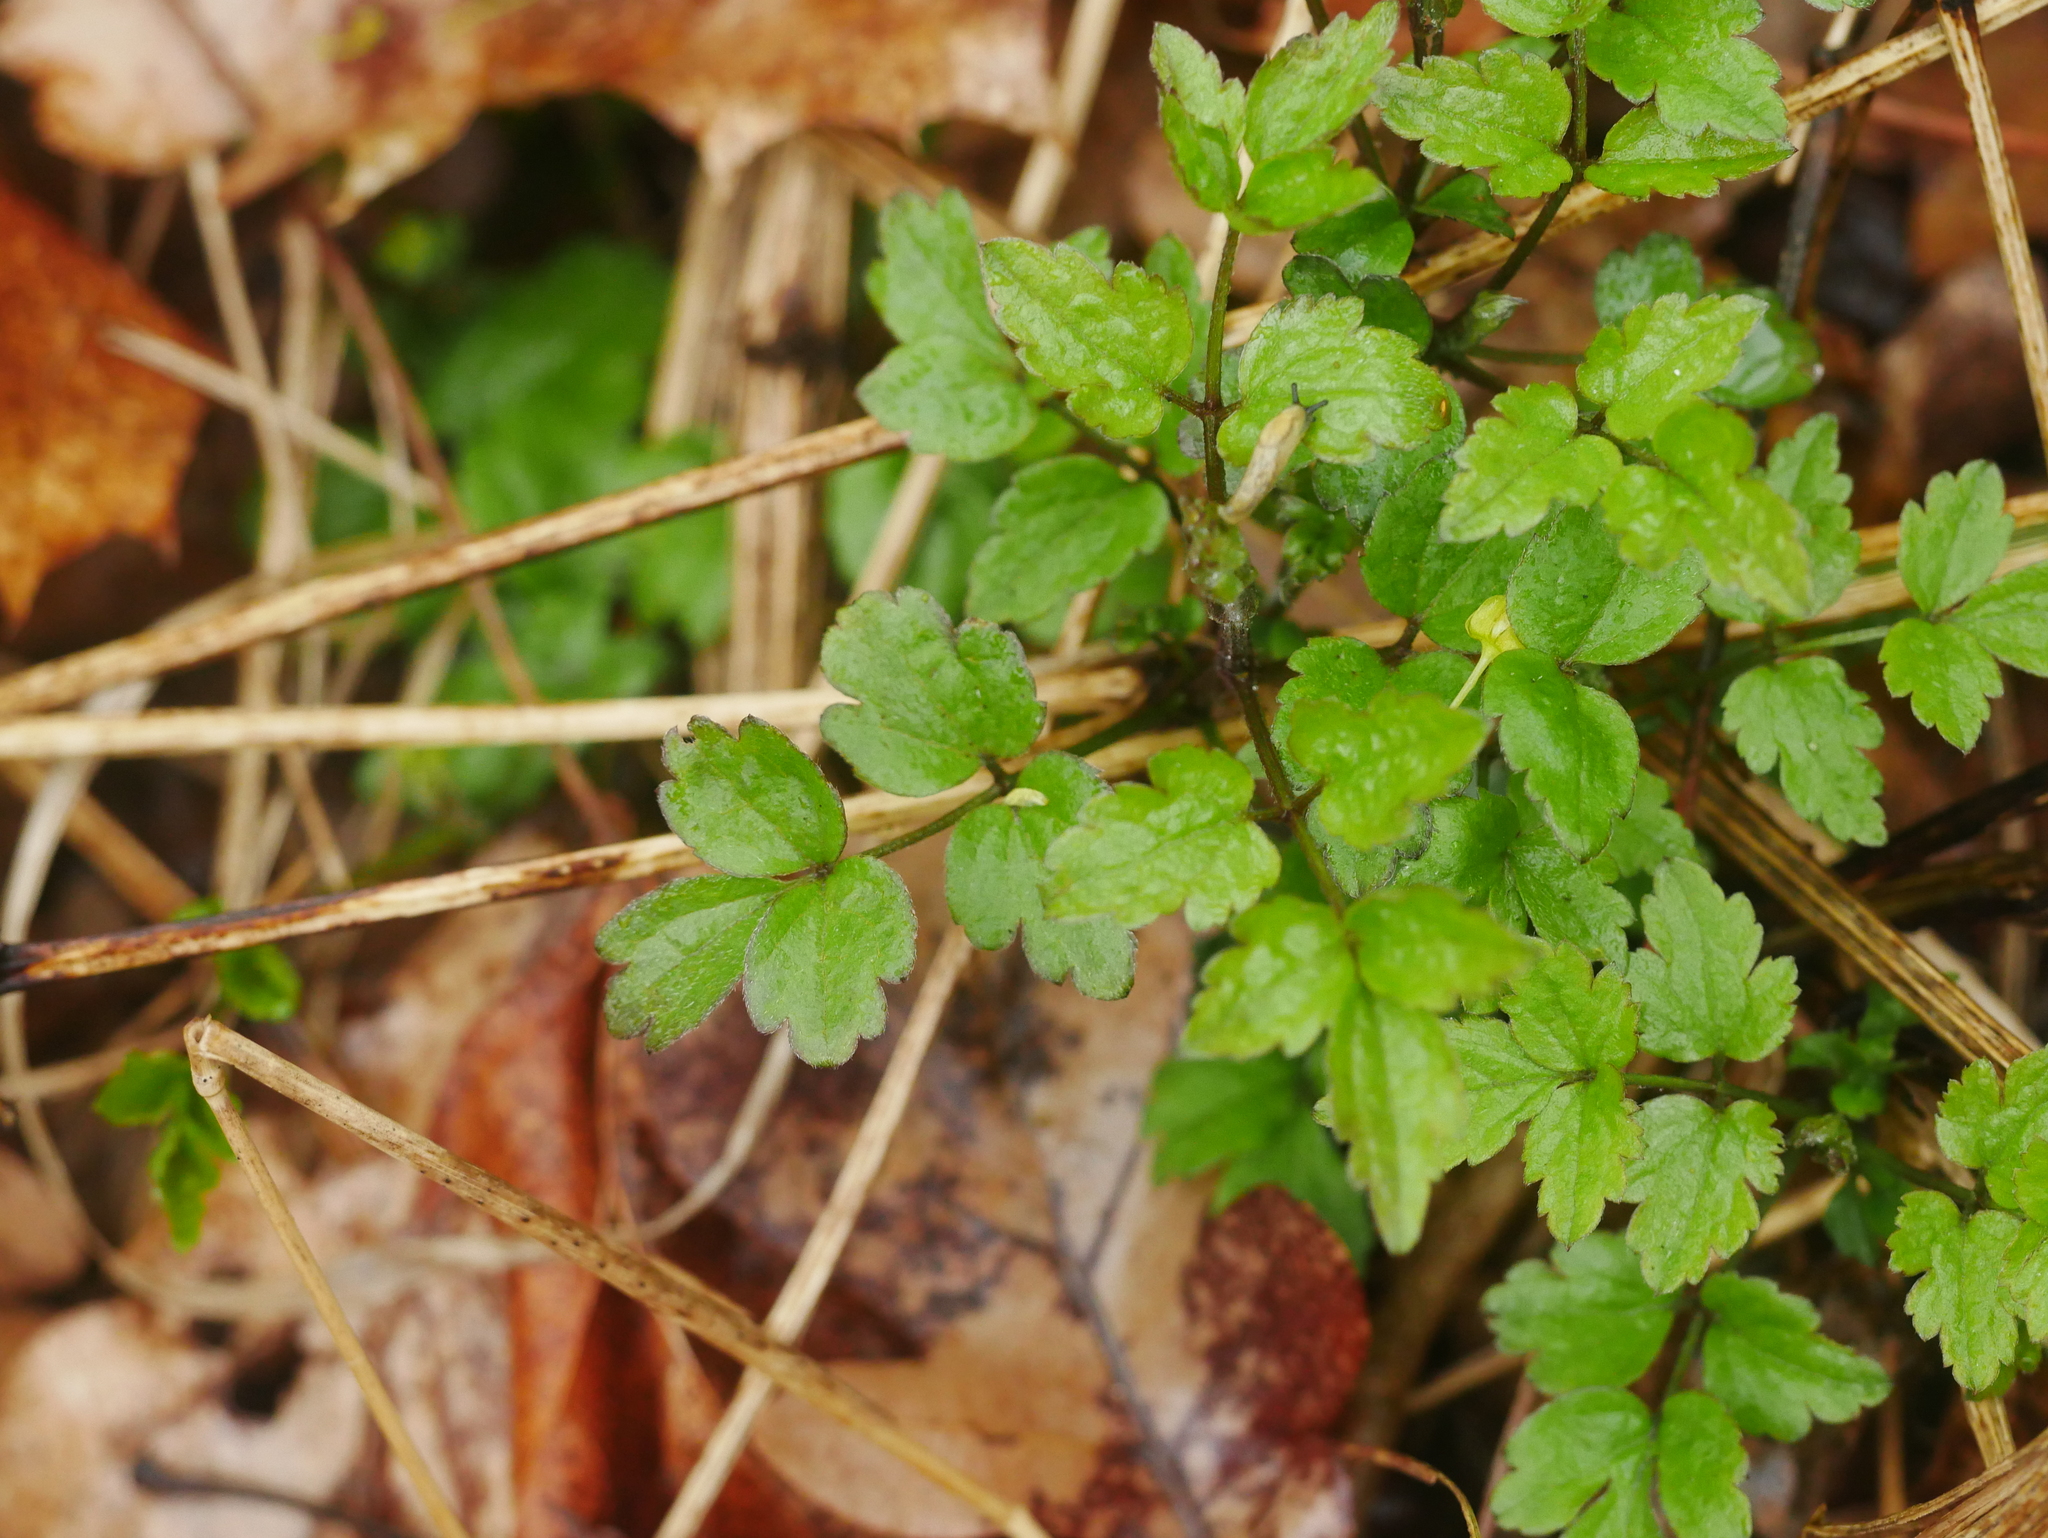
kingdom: Plantae
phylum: Tracheophyta
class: Magnoliopsida
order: Ranunculales
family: Ranunculaceae
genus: Clematis
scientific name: Clematis vitalba
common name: Evergreen clematis
